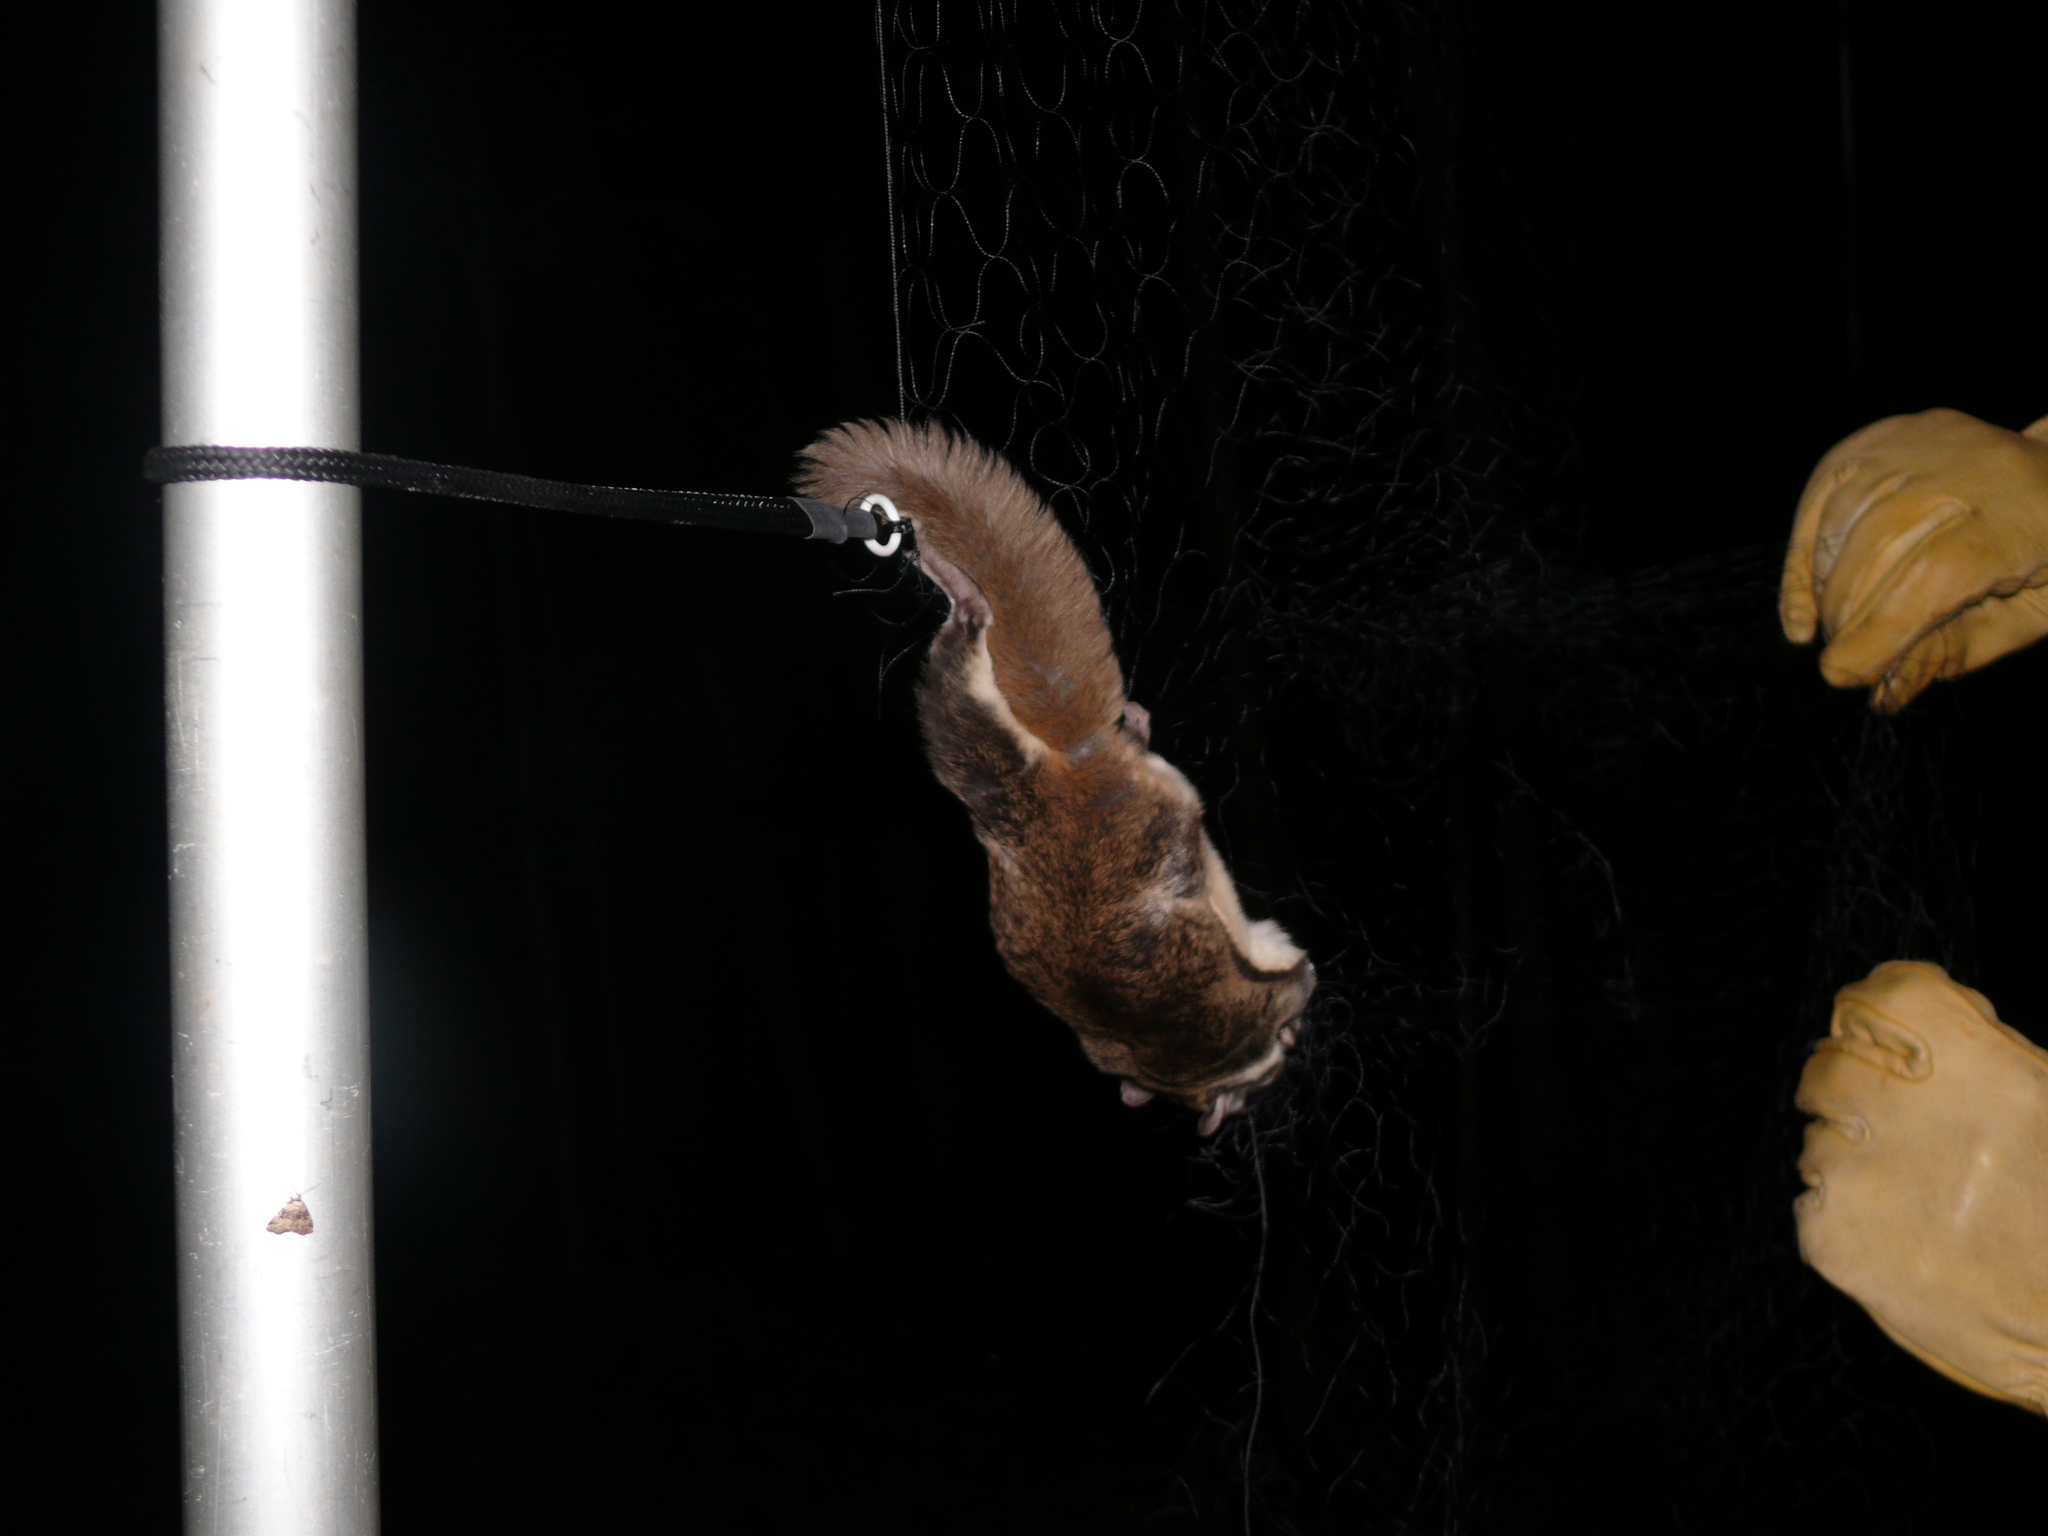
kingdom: Animalia
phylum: Chordata
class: Mammalia
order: Rodentia
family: Sciuridae
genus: Glaucomys
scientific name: Glaucomys volans
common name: Southern flying squirrel
